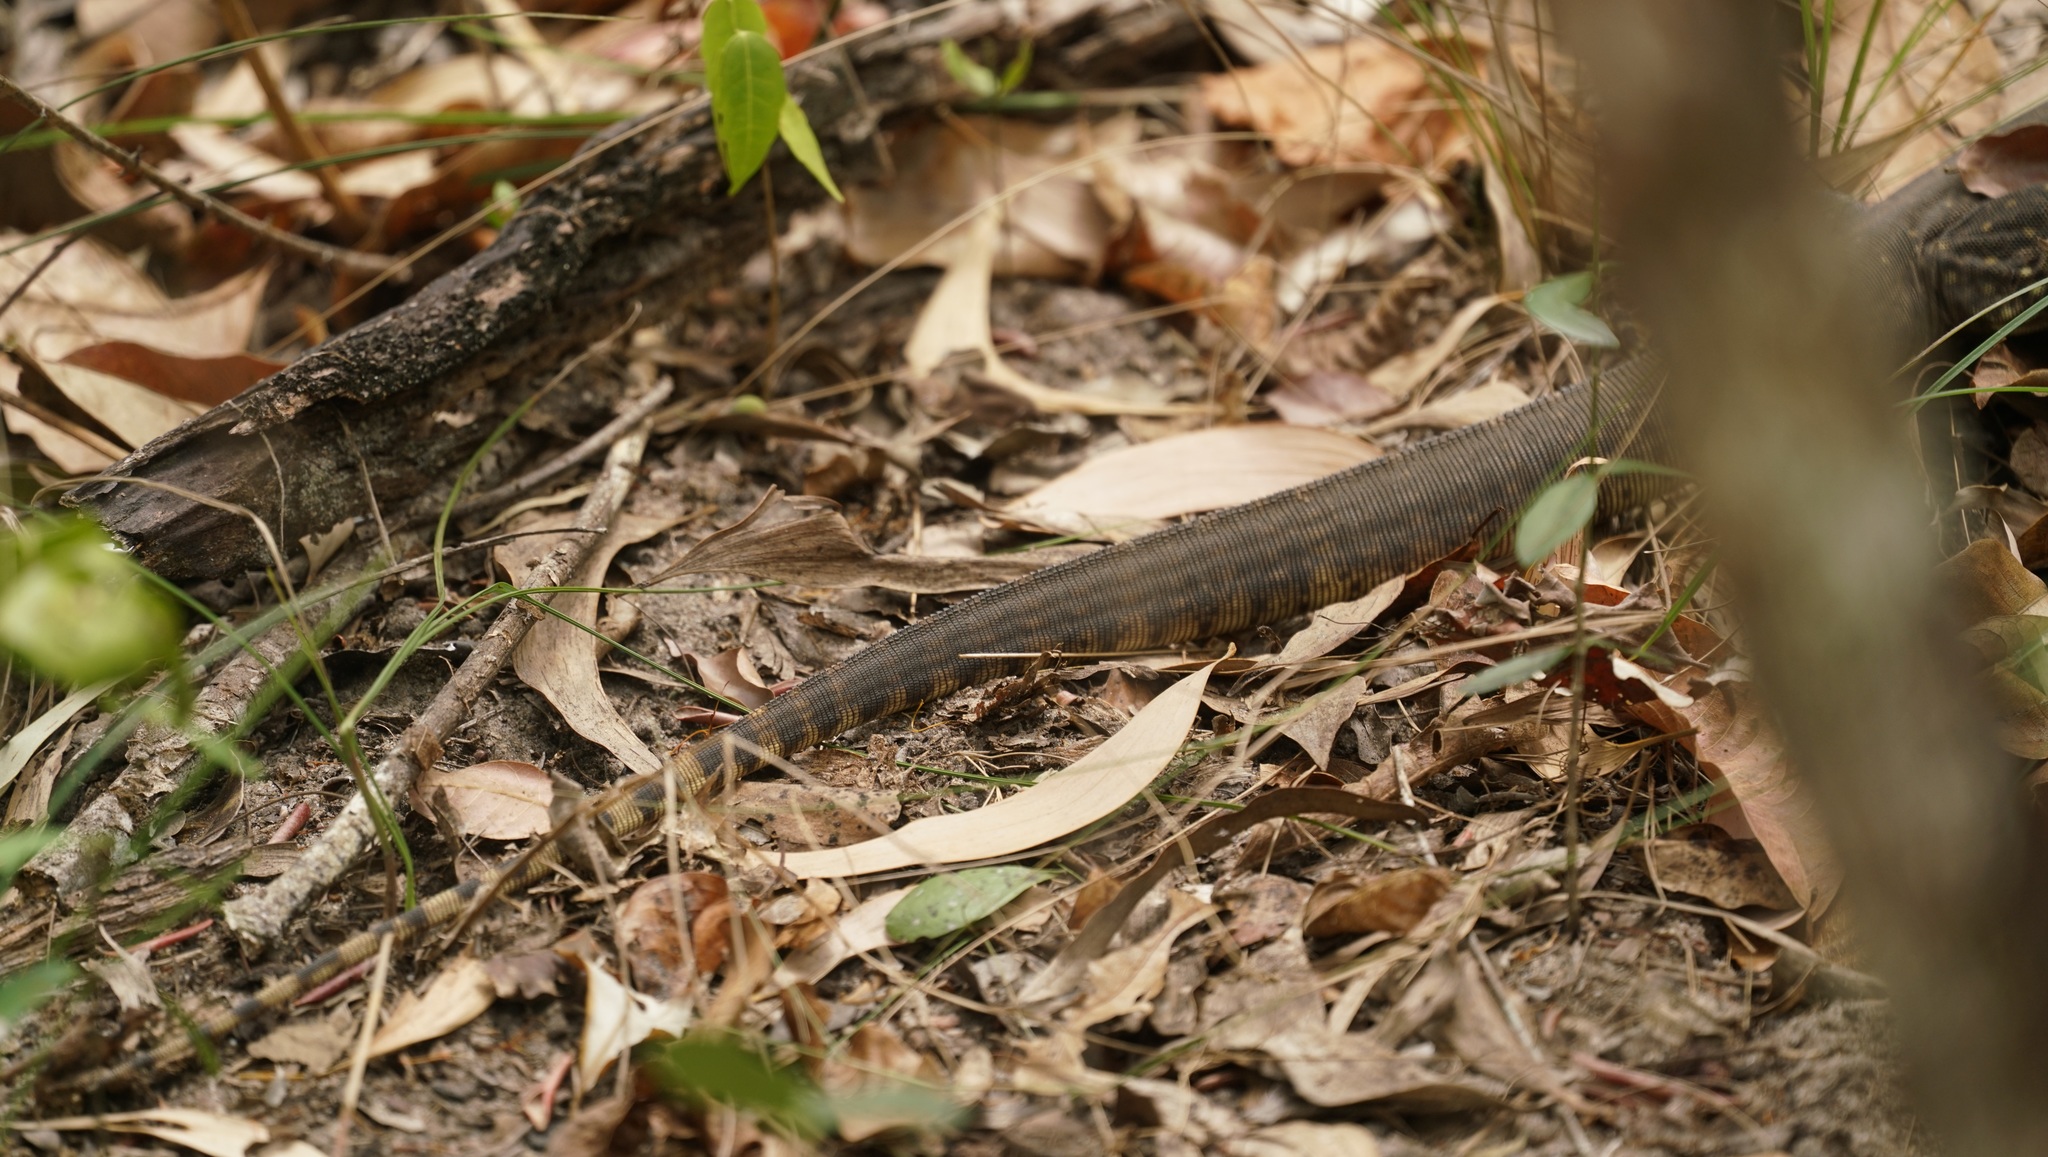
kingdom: Animalia
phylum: Chordata
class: Squamata
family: Varanidae
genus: Varanus
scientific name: Varanus panoptes
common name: Yellow-spotted monitor
